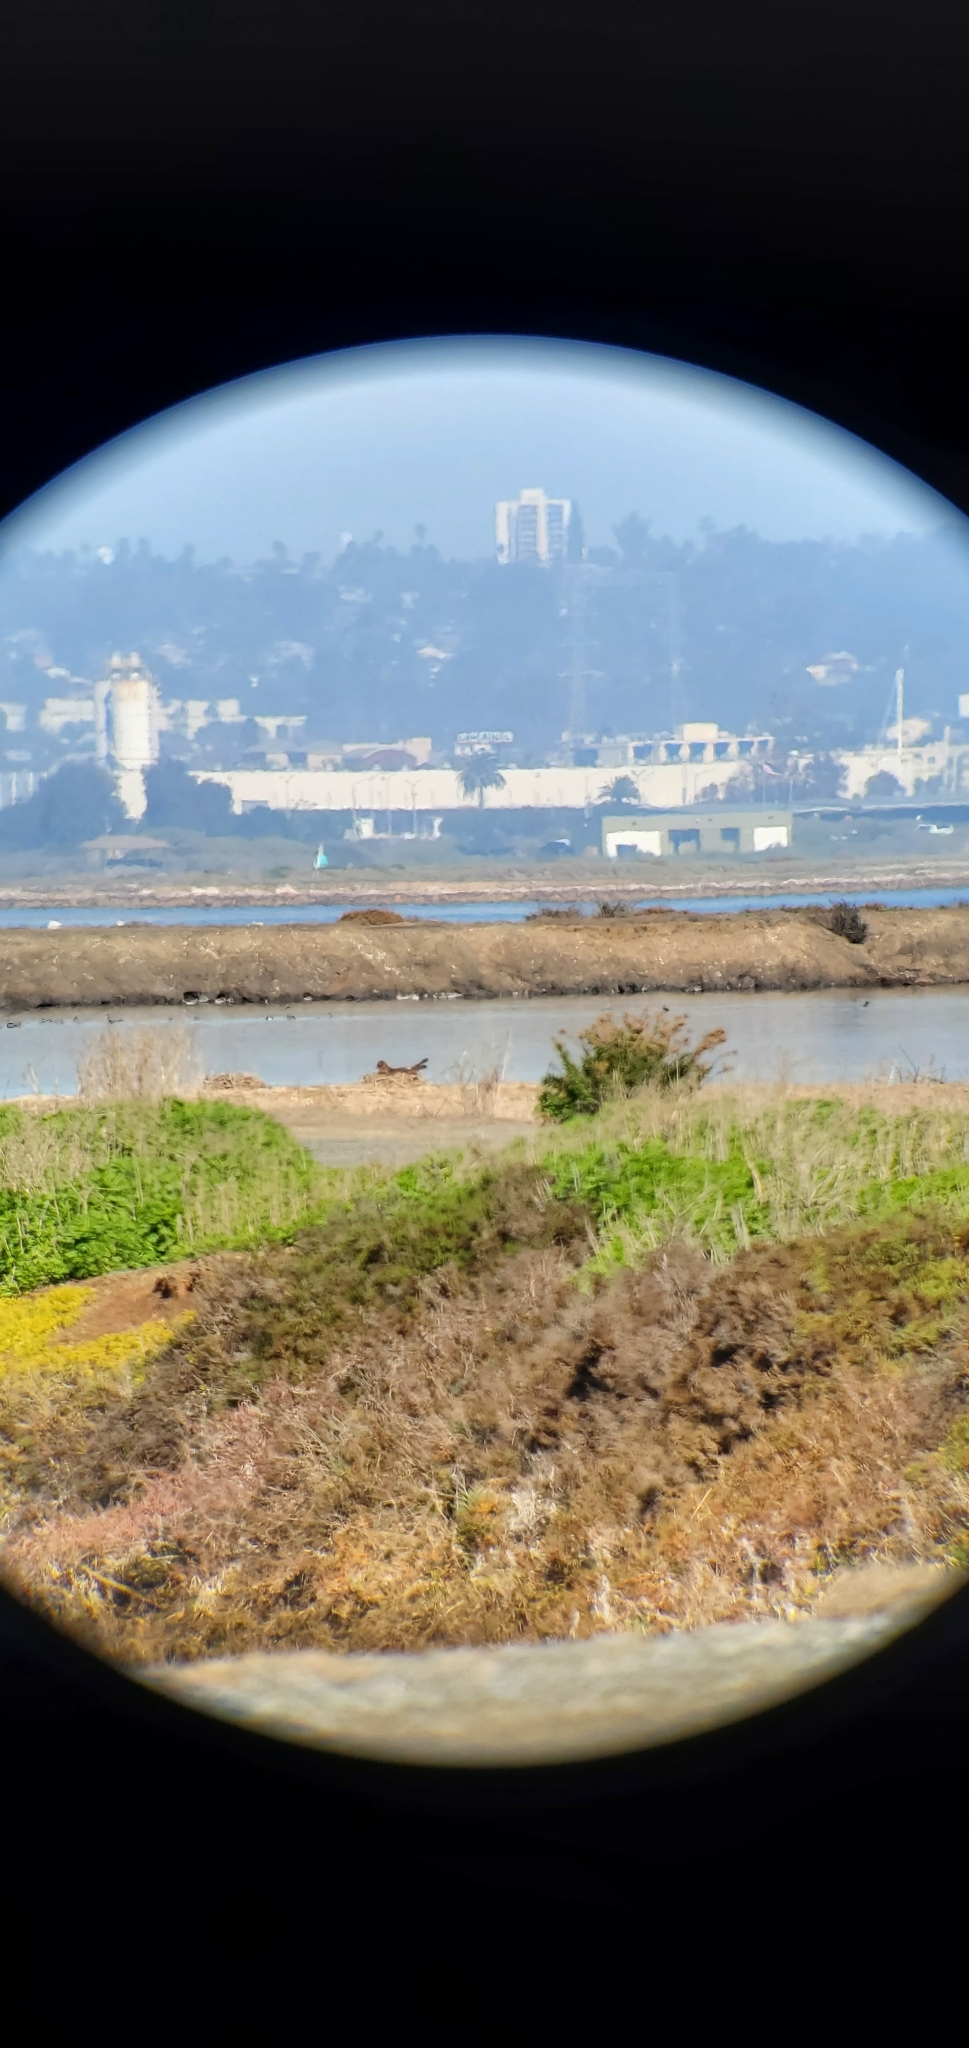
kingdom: Animalia
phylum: Chordata
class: Aves
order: Accipitriformes
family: Accipitridae
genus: Circus
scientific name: Circus cyaneus
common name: Hen harrier
